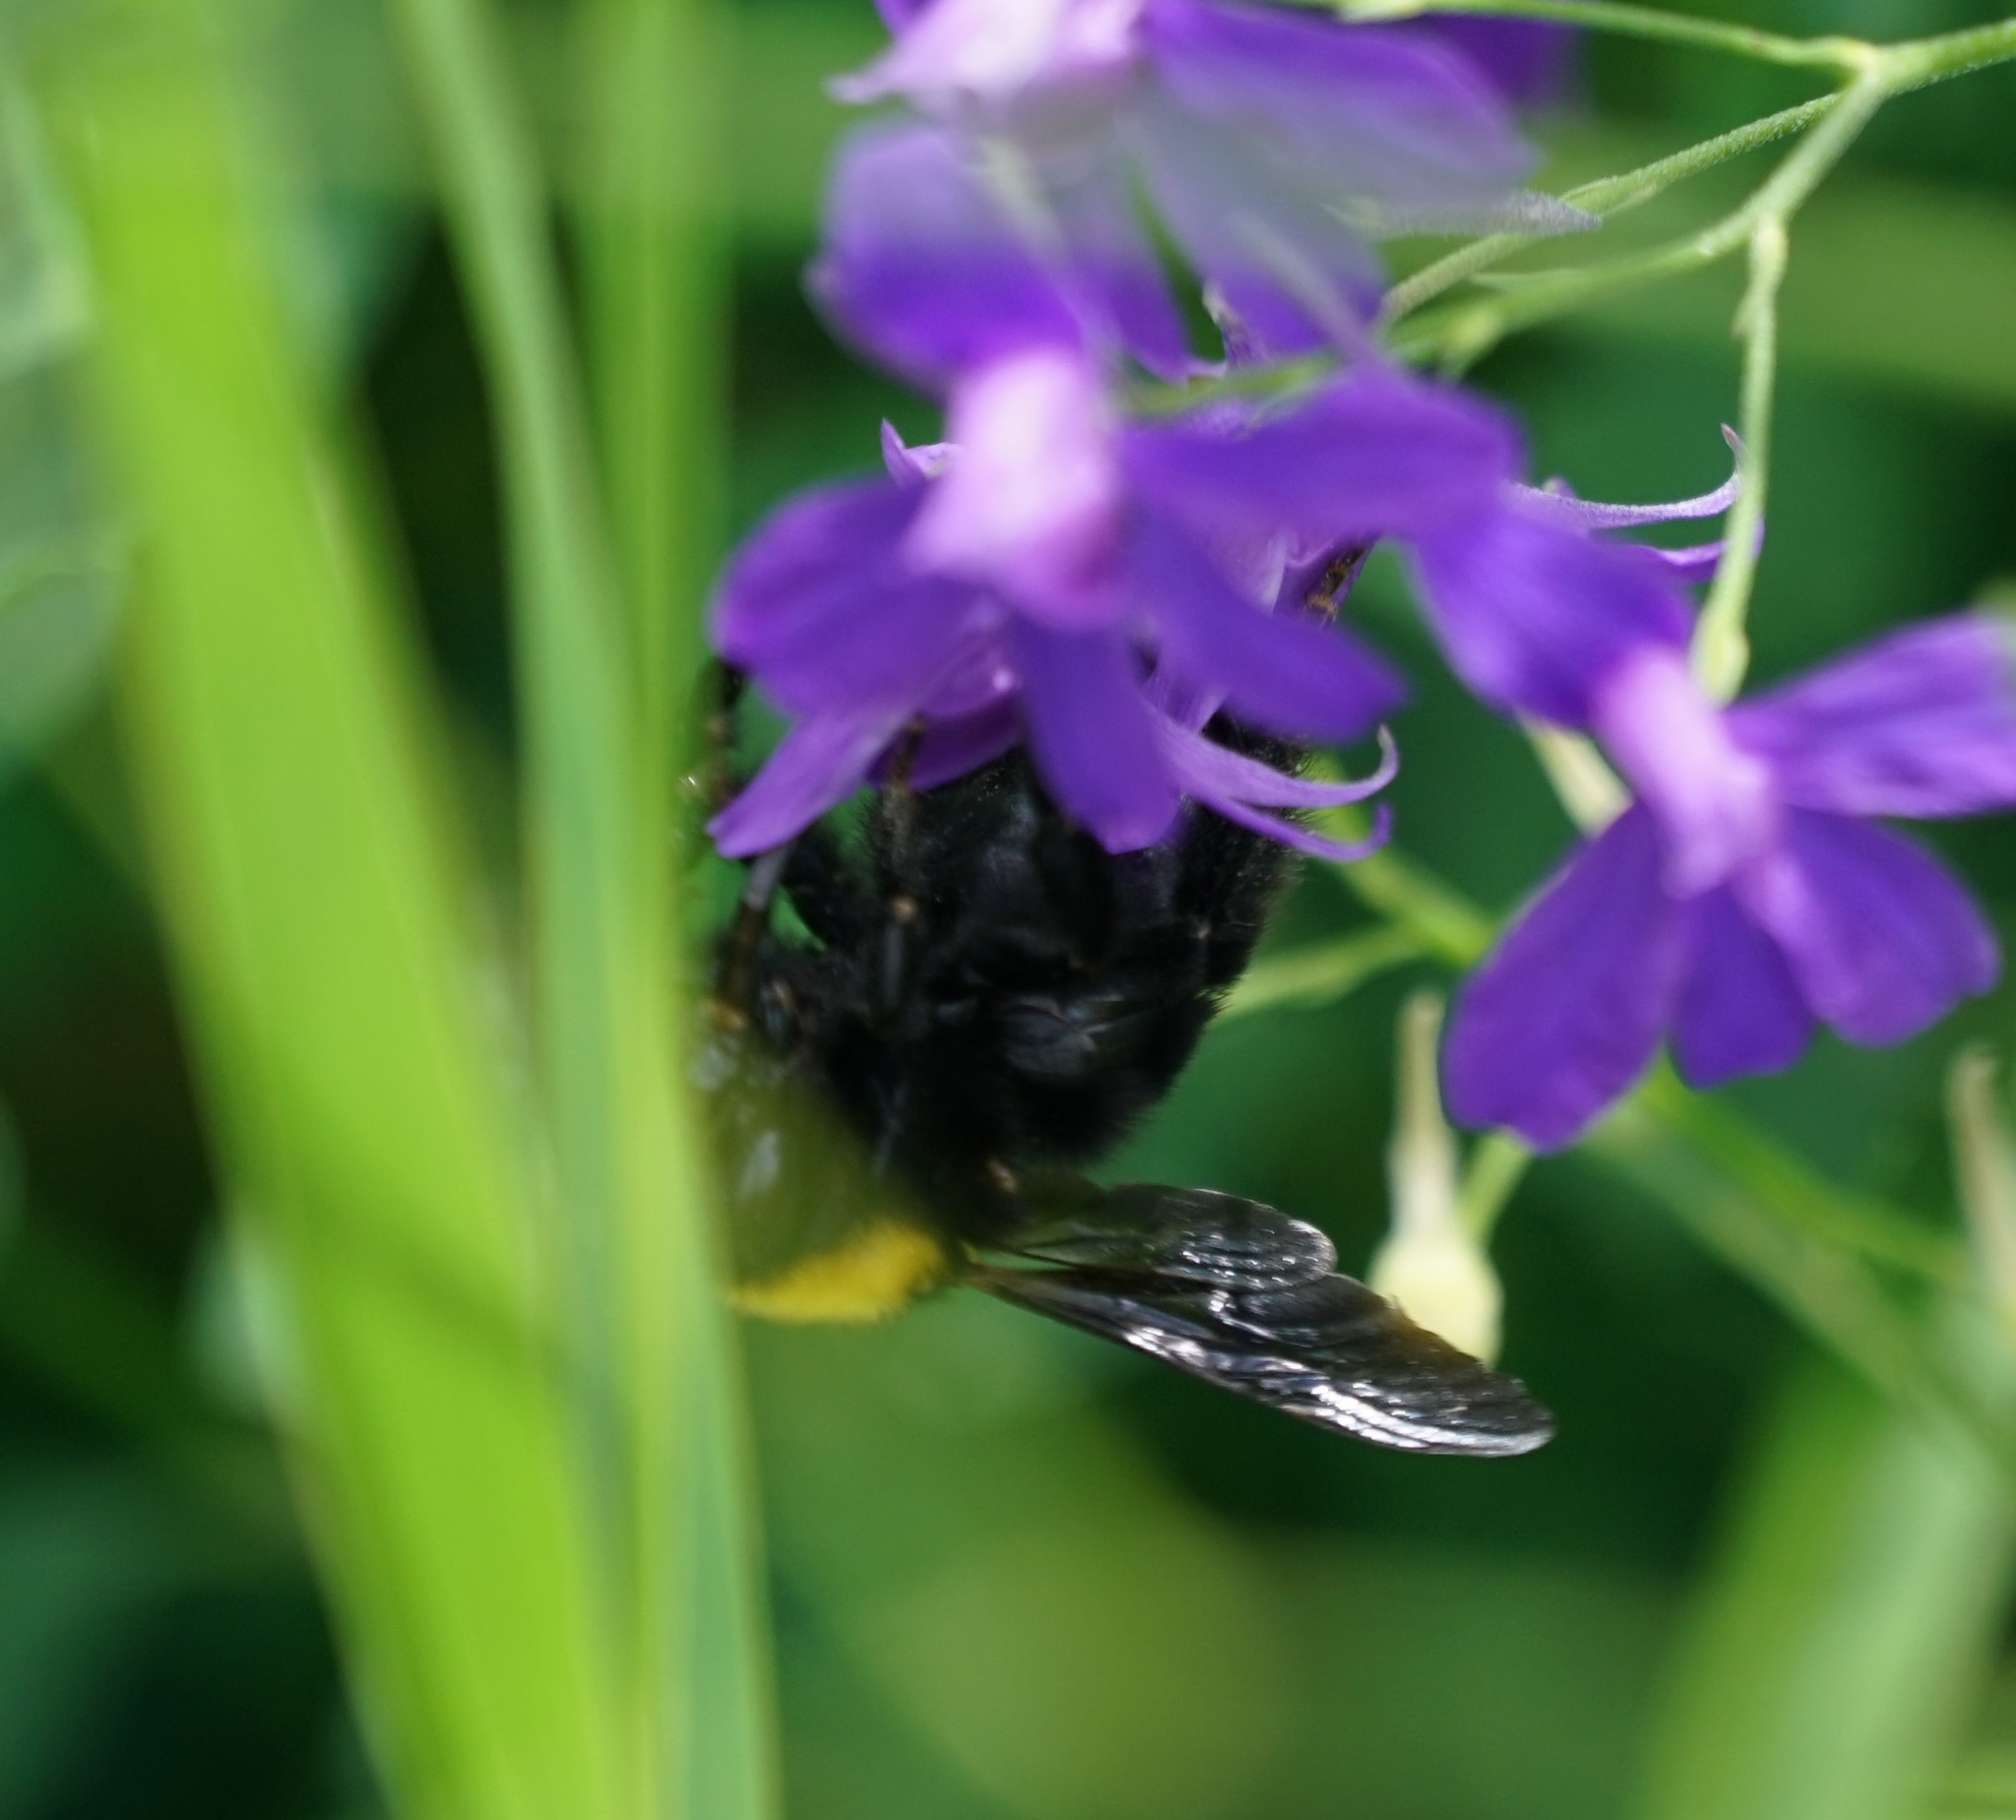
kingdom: Animalia
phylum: Arthropoda
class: Insecta
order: Hymenoptera
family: Apidae
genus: Bombus
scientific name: Bombus argillaceus
